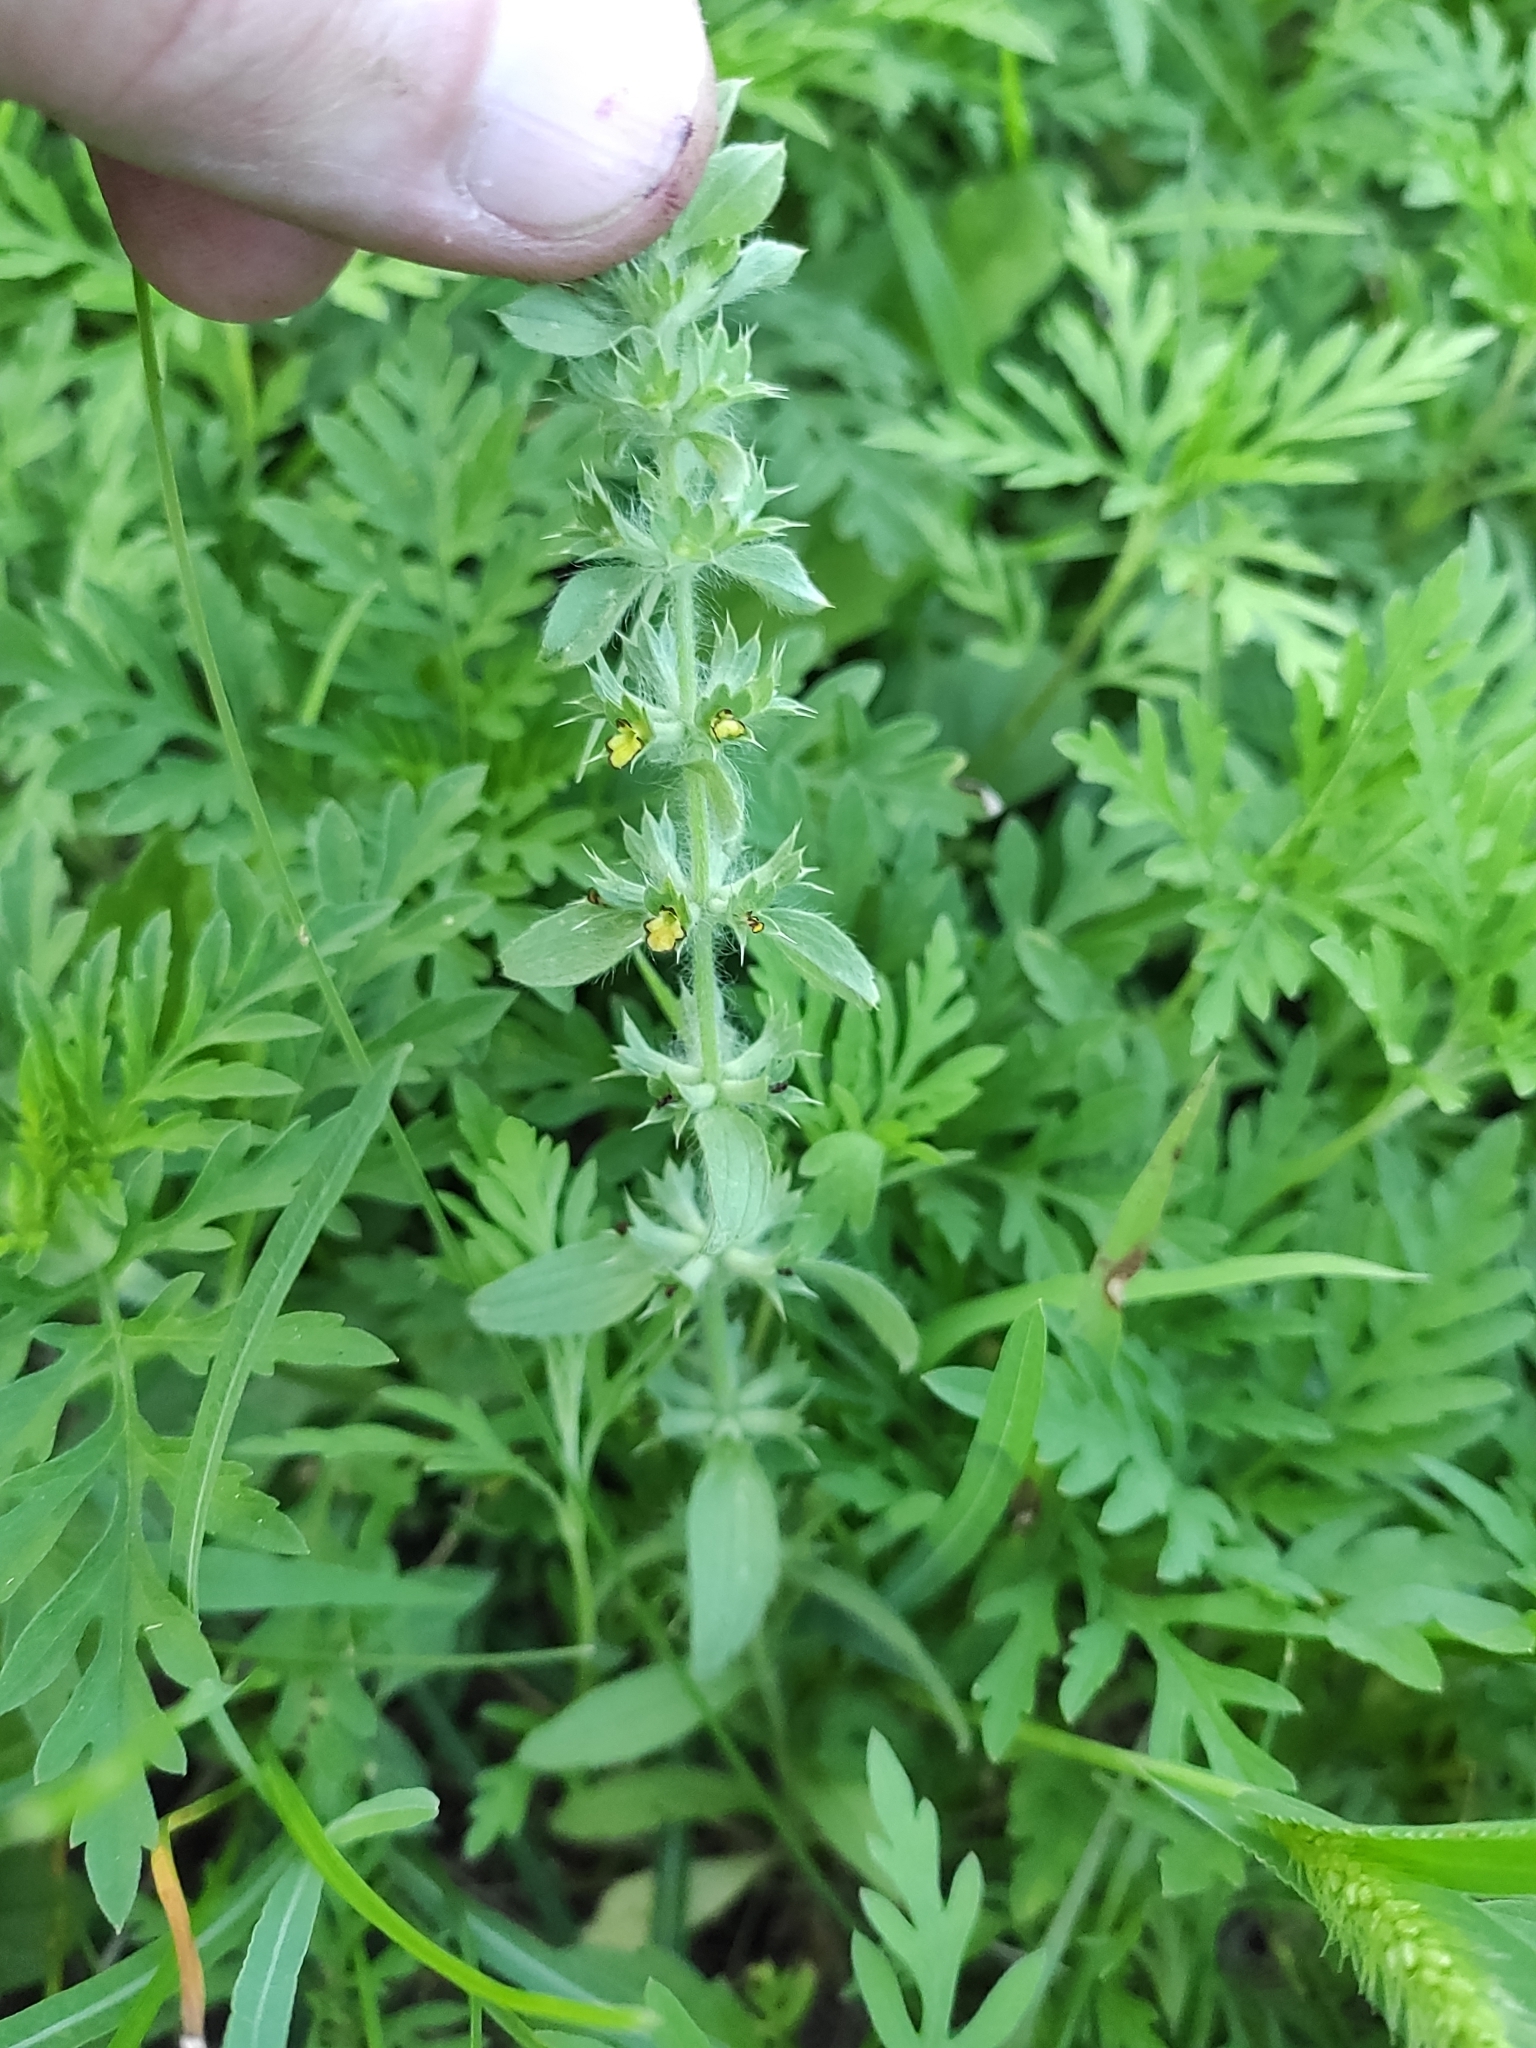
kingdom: Plantae
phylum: Tracheophyta
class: Magnoliopsida
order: Lamiales
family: Lamiaceae
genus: Sideritis
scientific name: Sideritis montana
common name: Mountain ironwort
